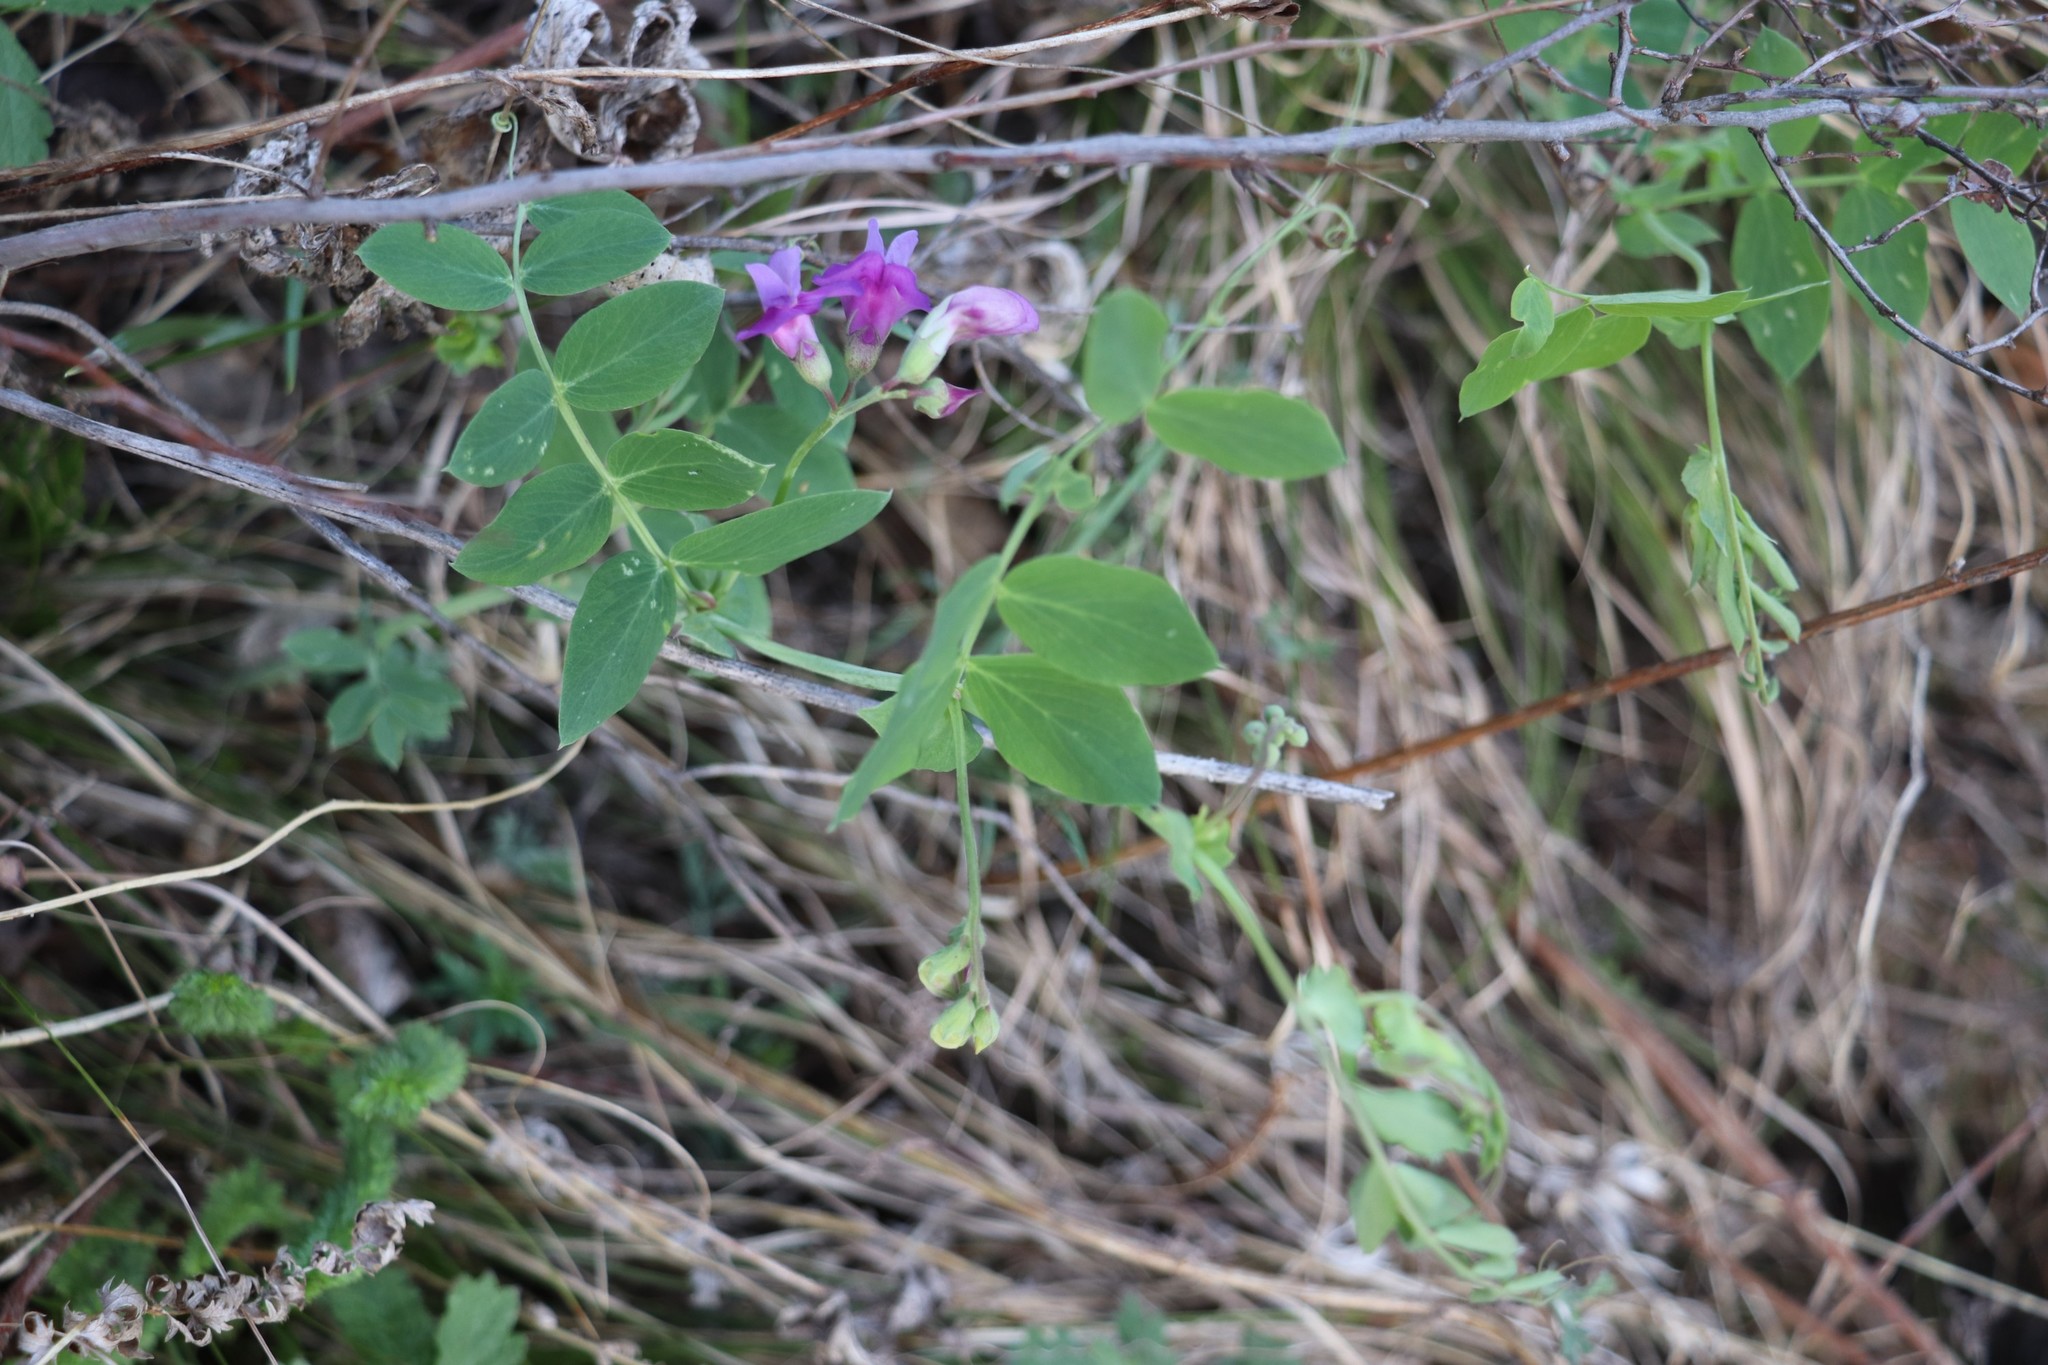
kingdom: Plantae
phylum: Tracheophyta
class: Magnoliopsida
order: Fabales
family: Fabaceae
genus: Lathyrus
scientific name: Lathyrus humilis
